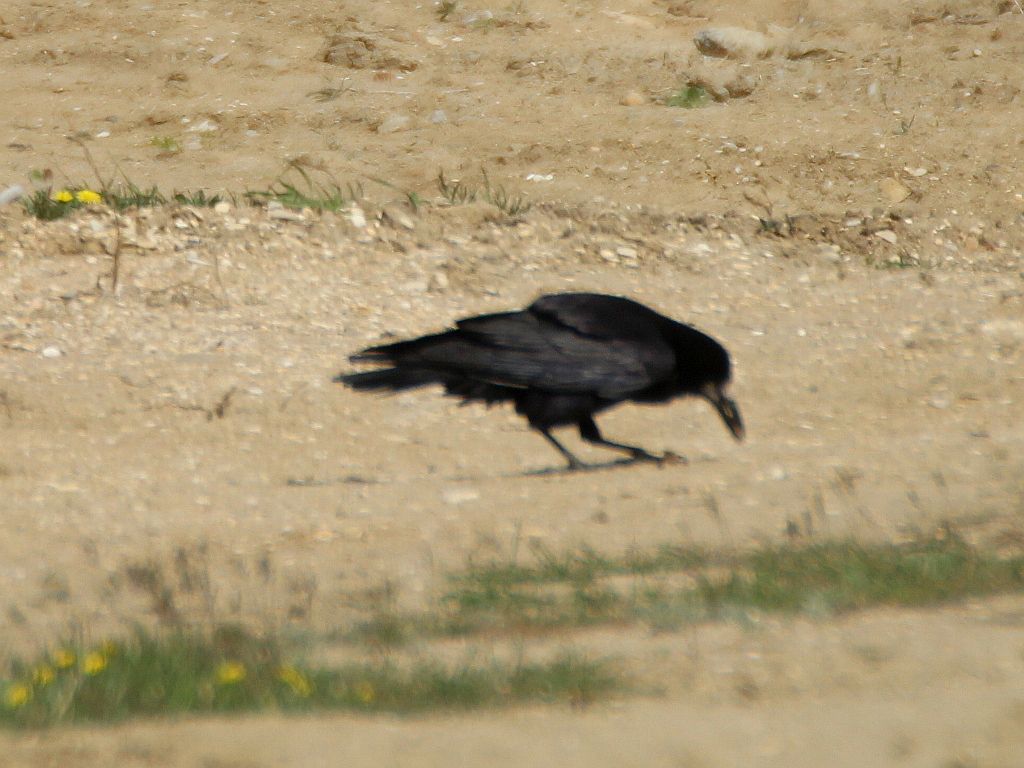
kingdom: Animalia
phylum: Chordata
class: Aves
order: Passeriformes
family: Corvidae
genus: Corvus
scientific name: Corvus frugilegus
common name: Rook
